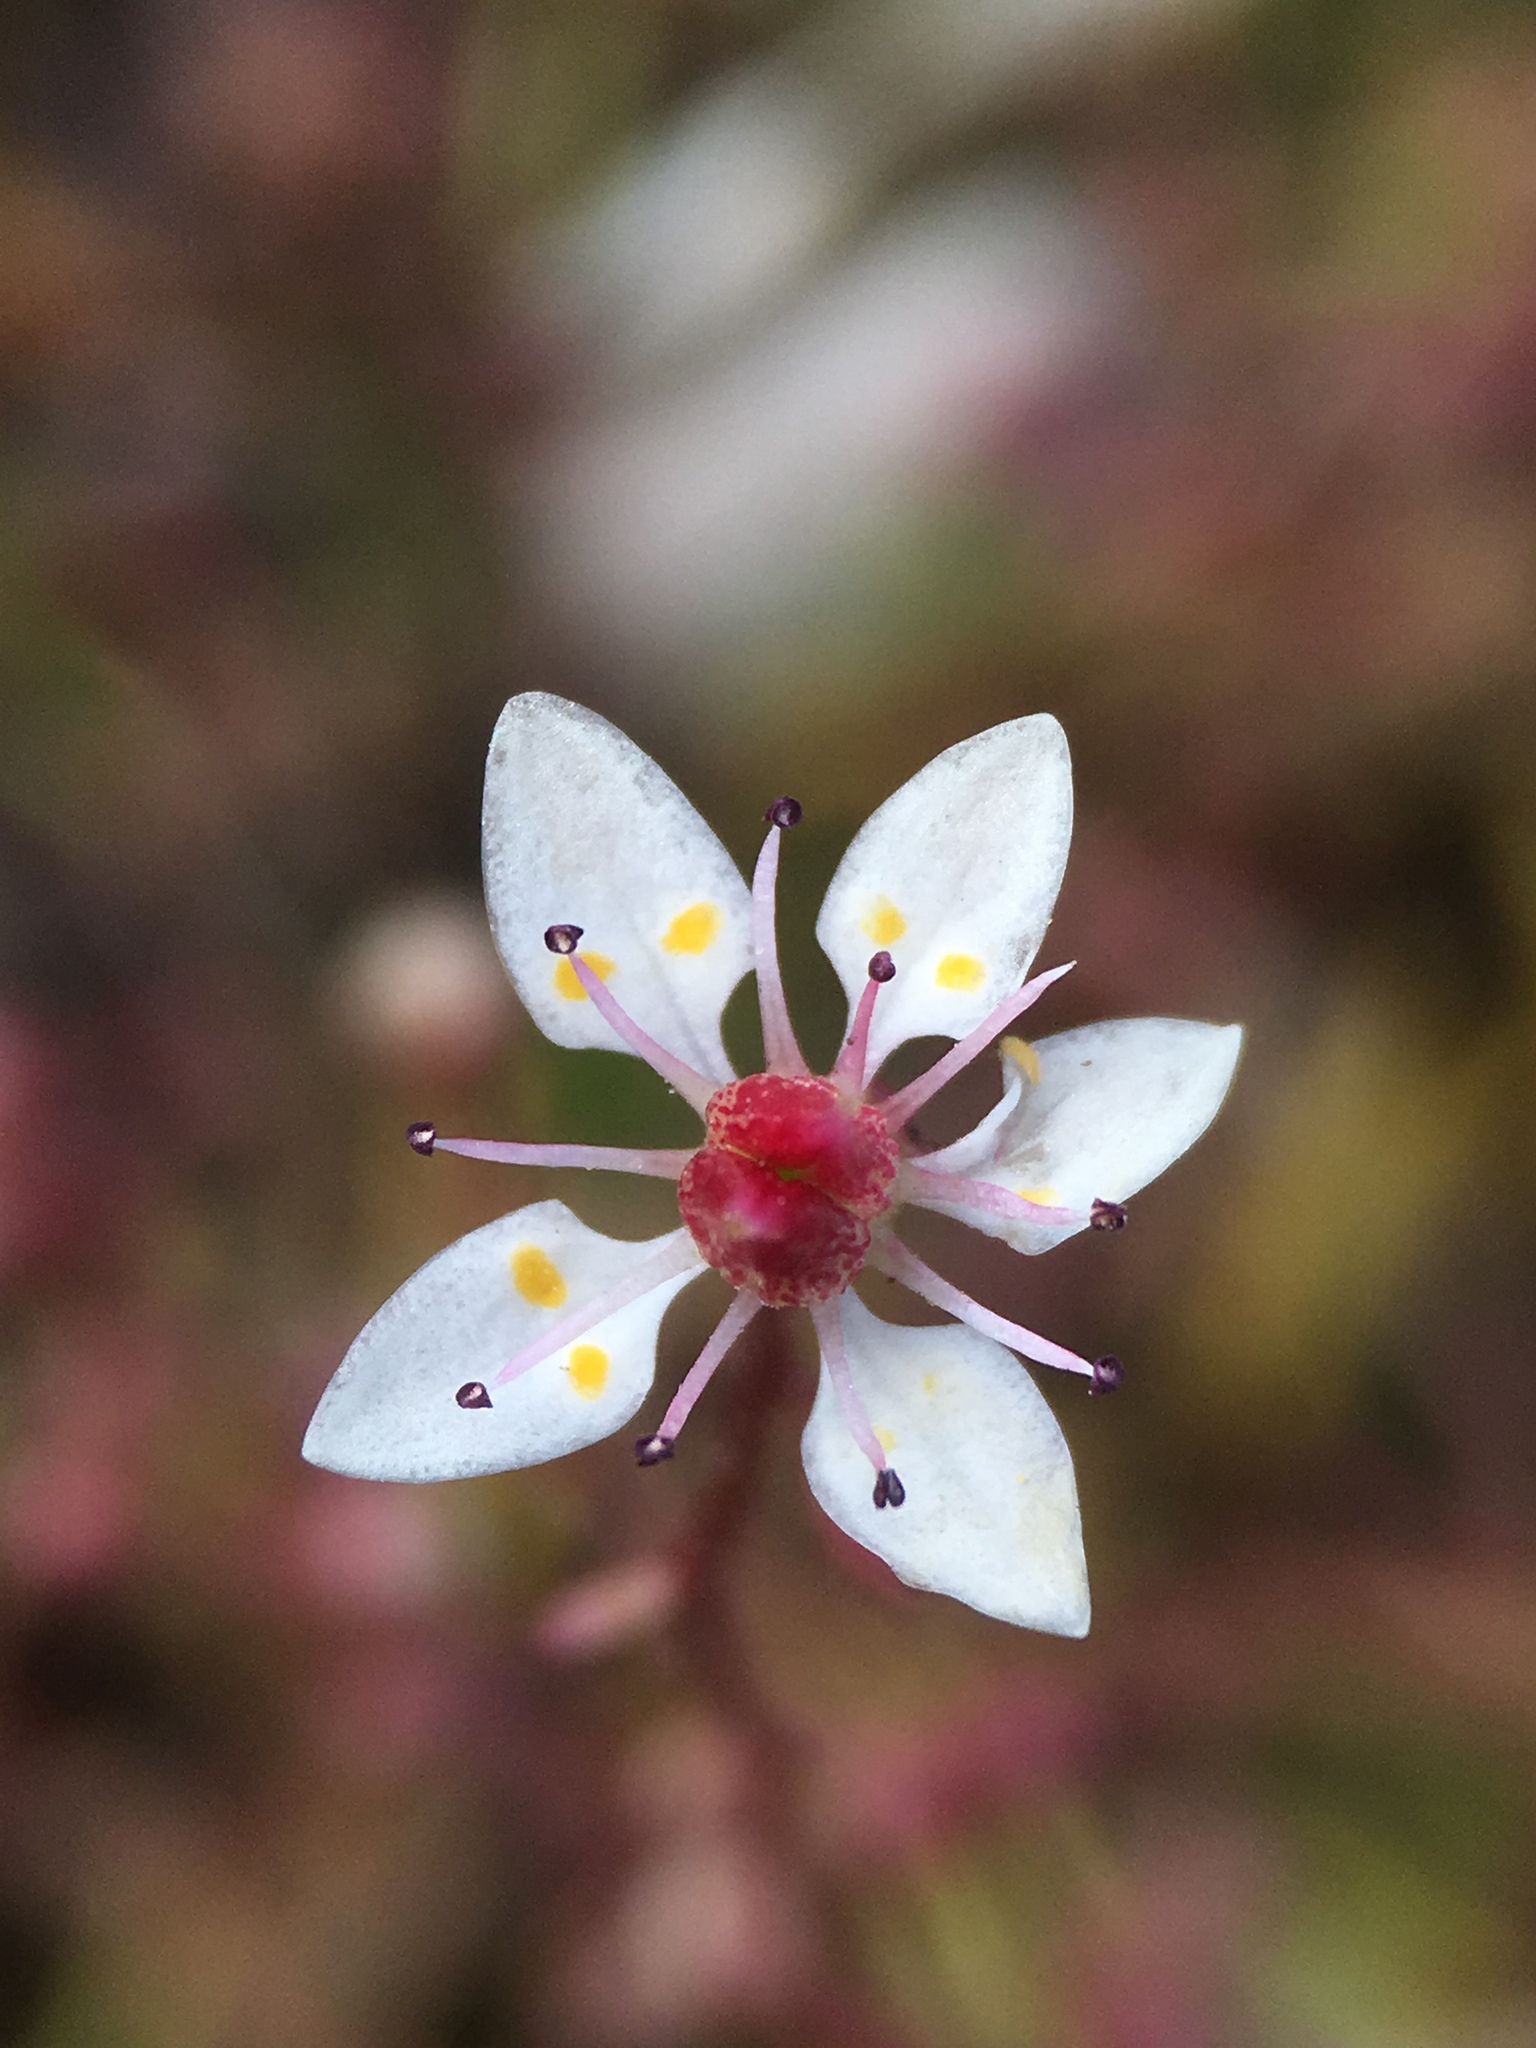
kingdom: Plantae
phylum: Tracheophyta
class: Magnoliopsida
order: Saxifragales
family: Saxifragaceae
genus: Micranthes
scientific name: Micranthes bryophora
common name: Bud saxifrage
